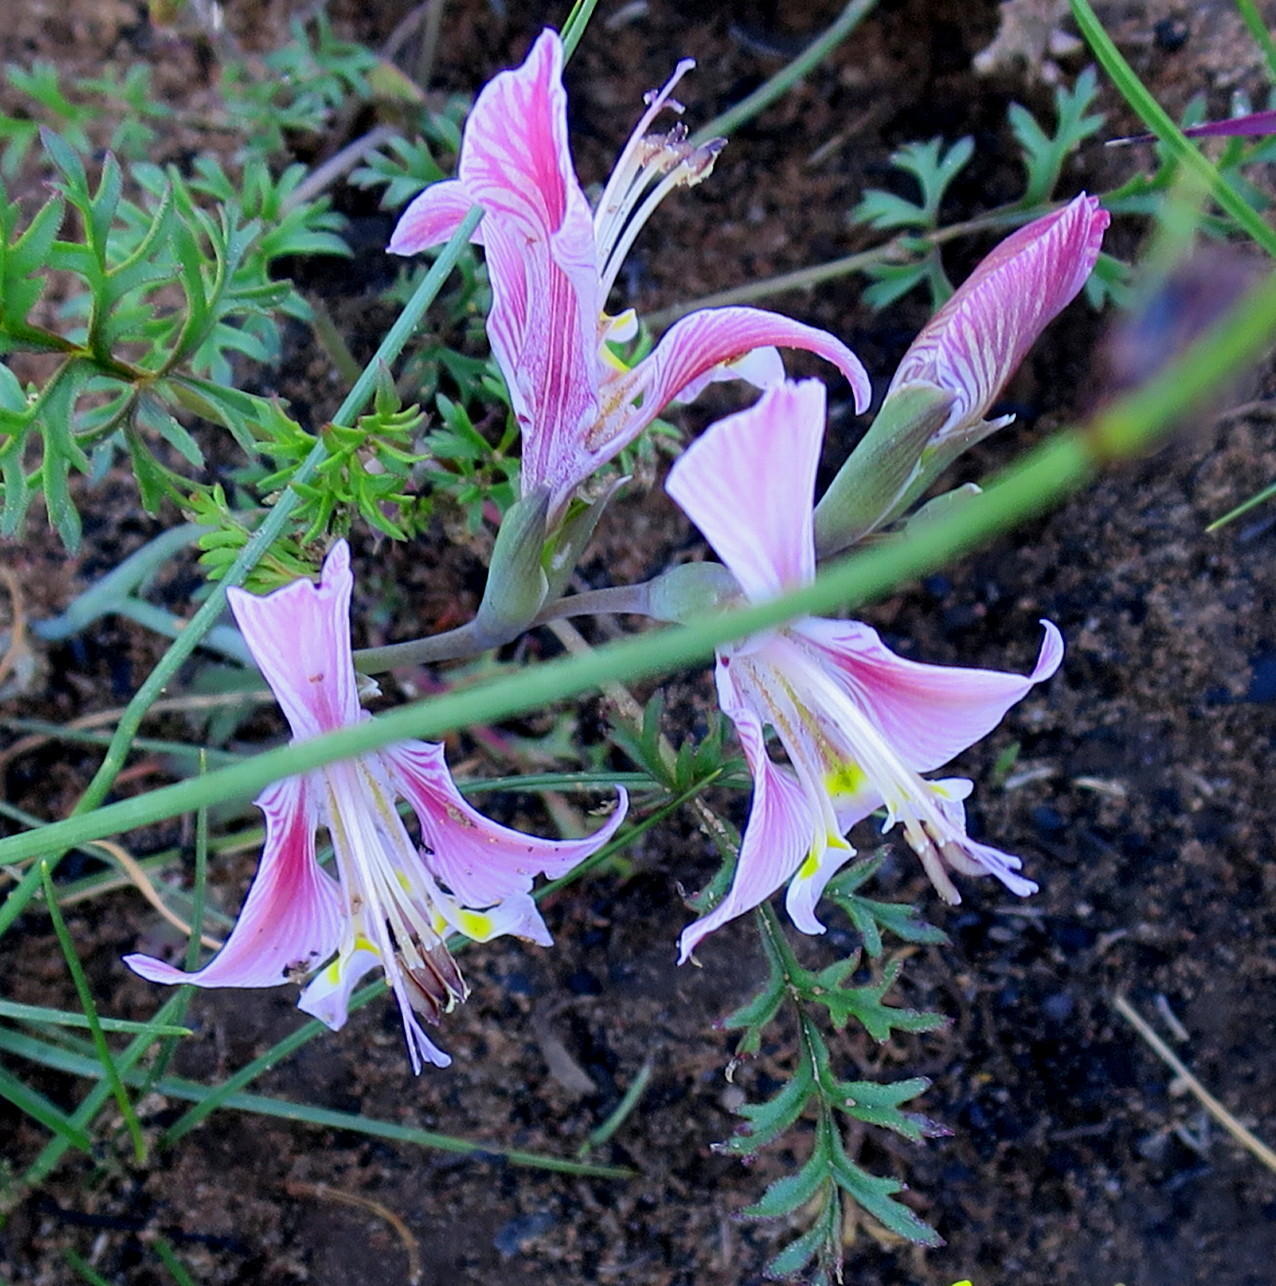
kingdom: Plantae
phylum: Tracheophyta
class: Liliopsida
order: Asparagales
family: Iridaceae
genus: Gladiolus
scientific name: Gladiolus virescens
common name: Yellow kalkoentjie
